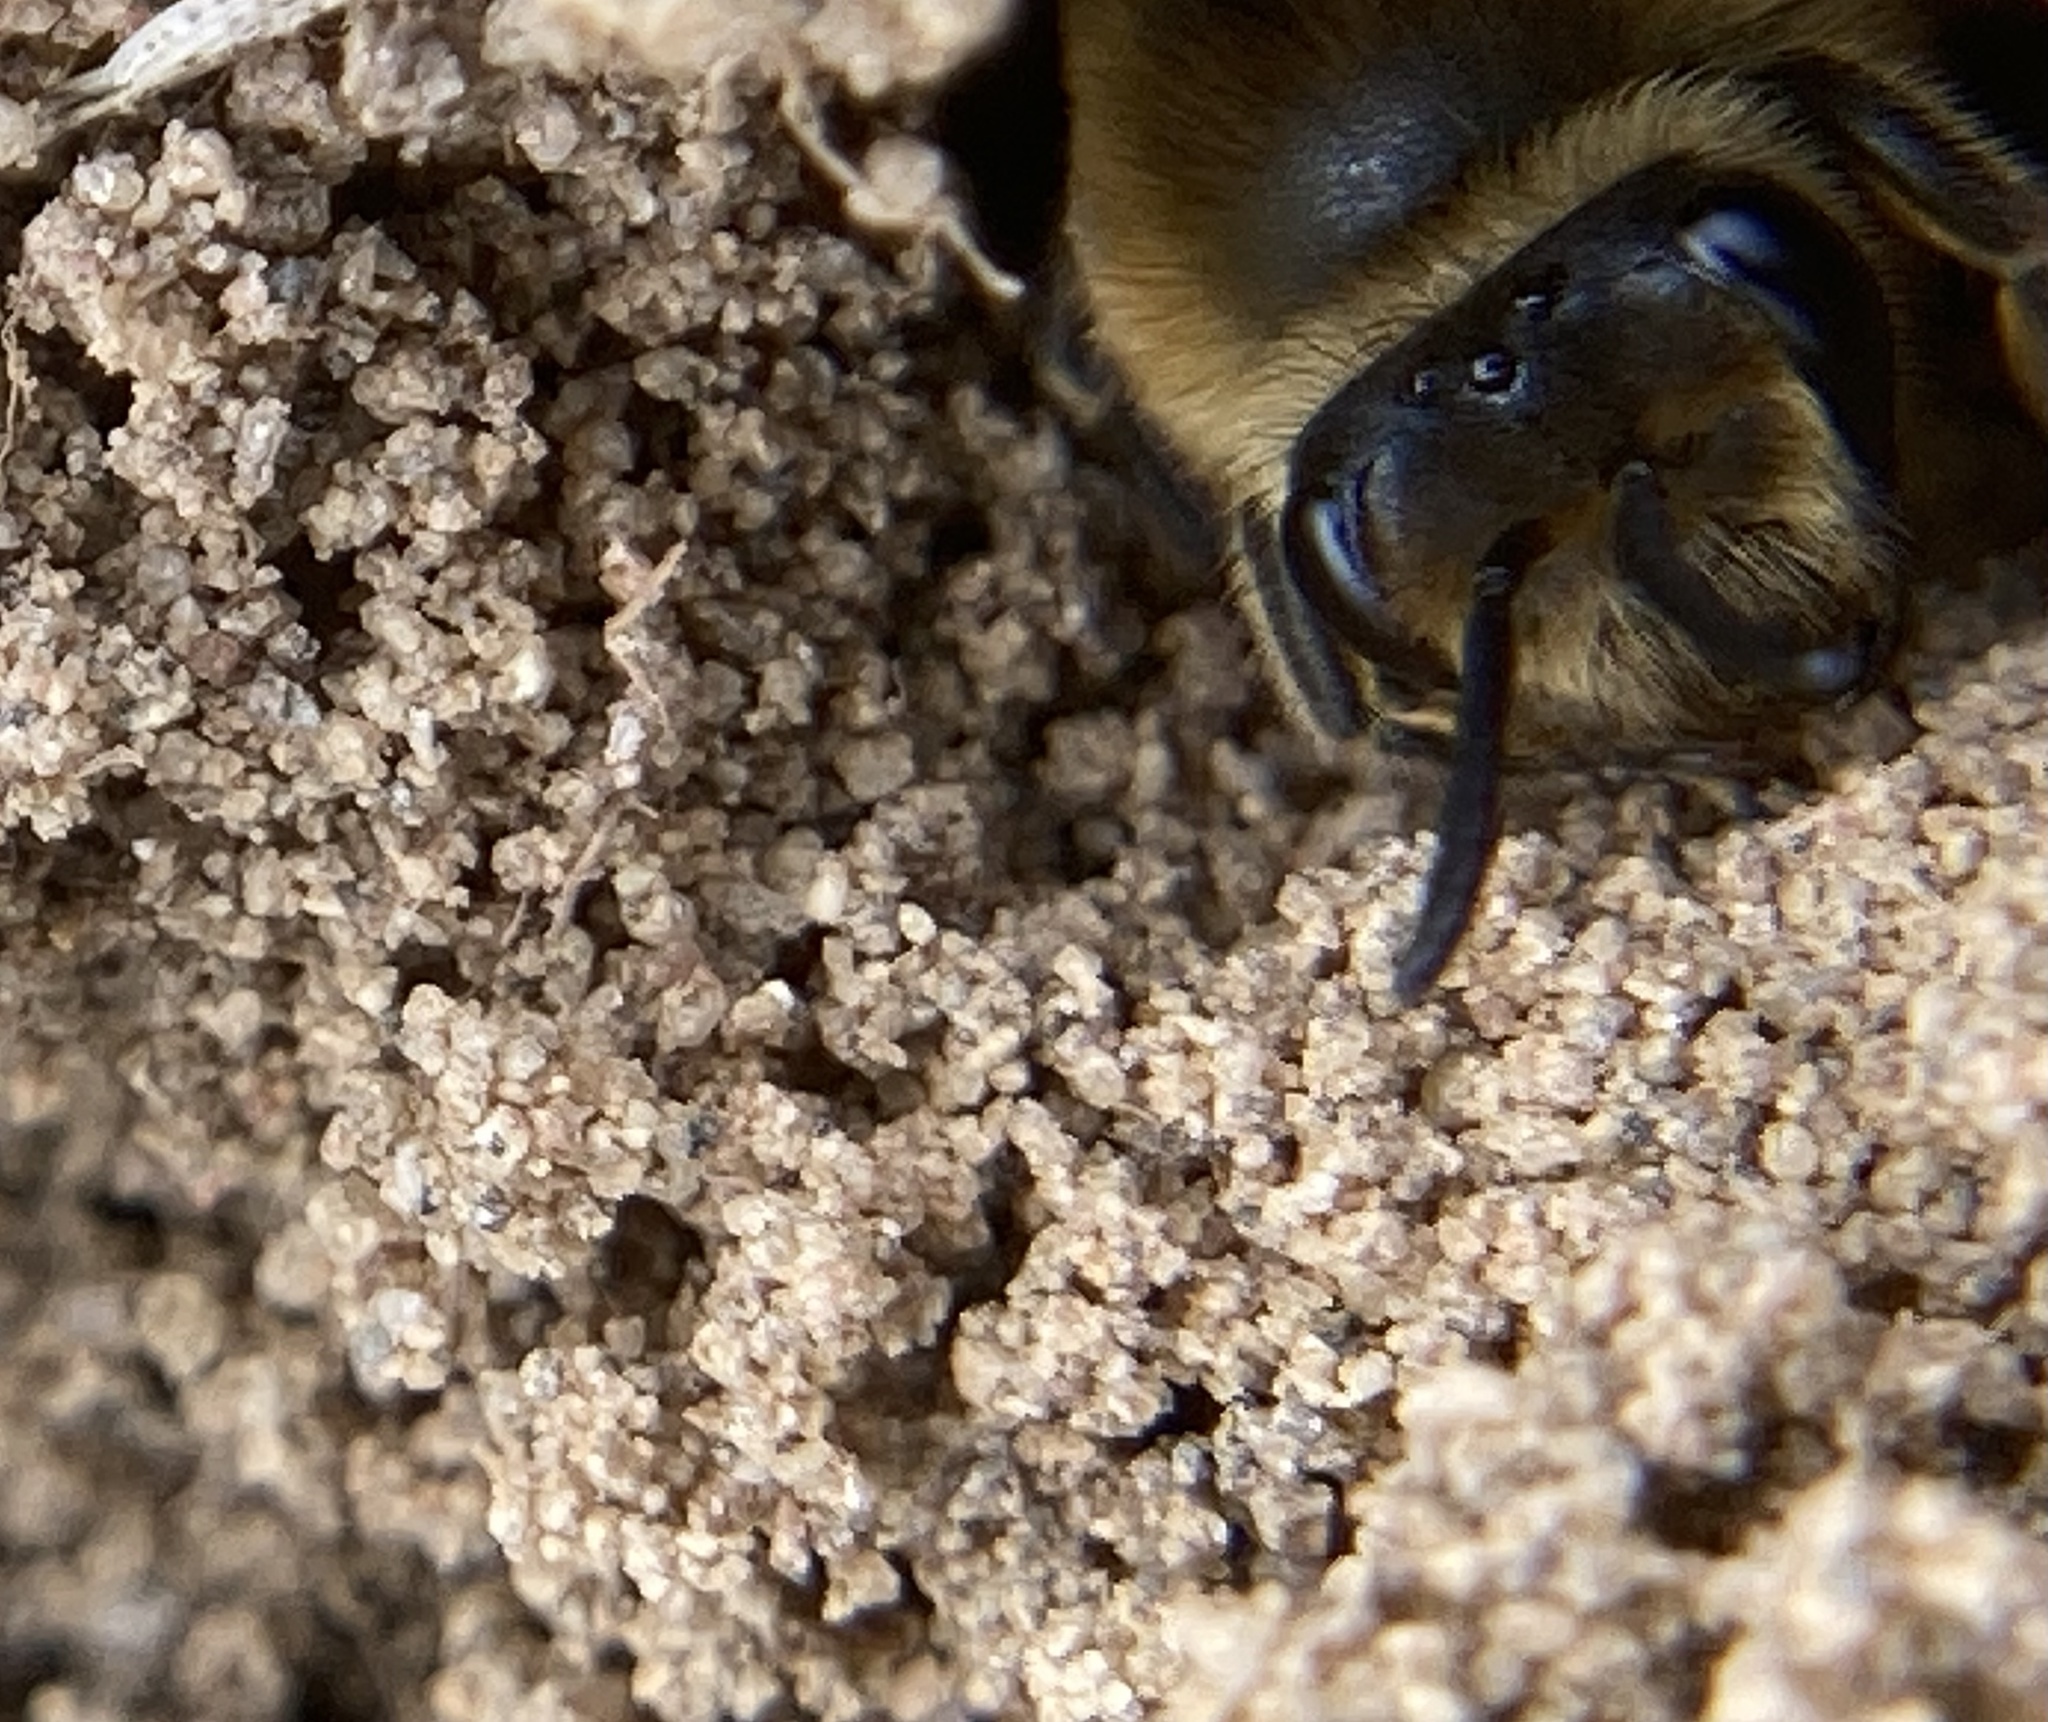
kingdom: Animalia
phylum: Arthropoda
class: Insecta
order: Hymenoptera
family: Colletidae
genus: Colletes
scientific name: Colletes inaequalis
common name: Unequal cellophane bee
